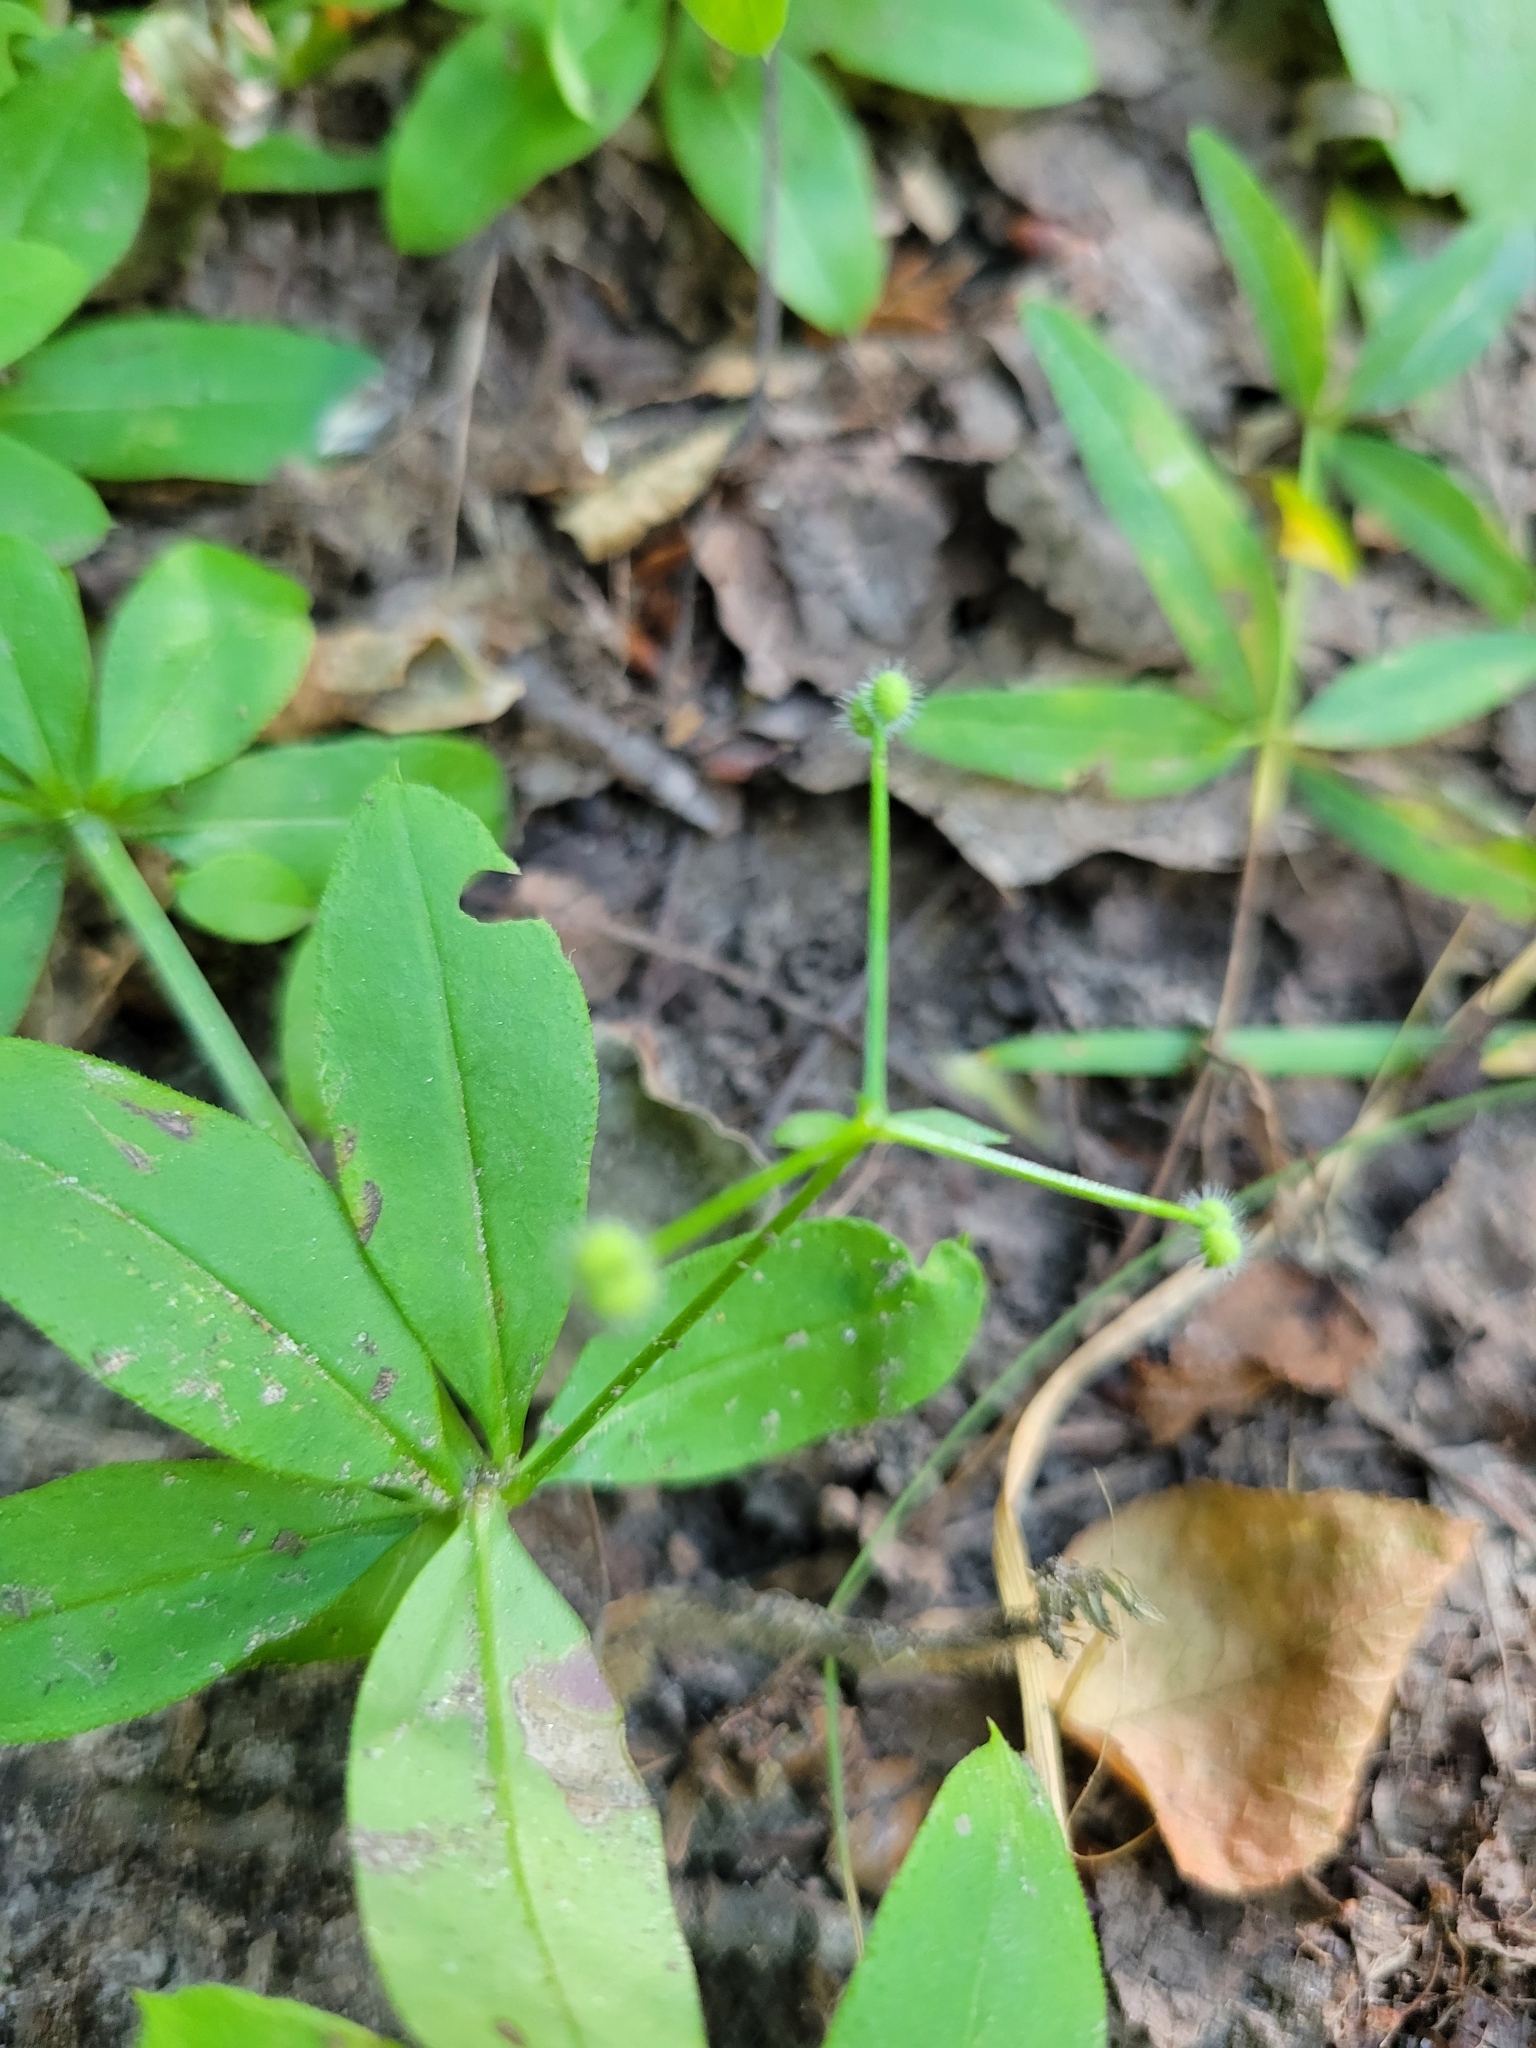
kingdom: Plantae
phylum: Tracheophyta
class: Magnoliopsida
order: Gentianales
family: Rubiaceae
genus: Galium
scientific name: Galium triflorum
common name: Fragrant bedstraw
